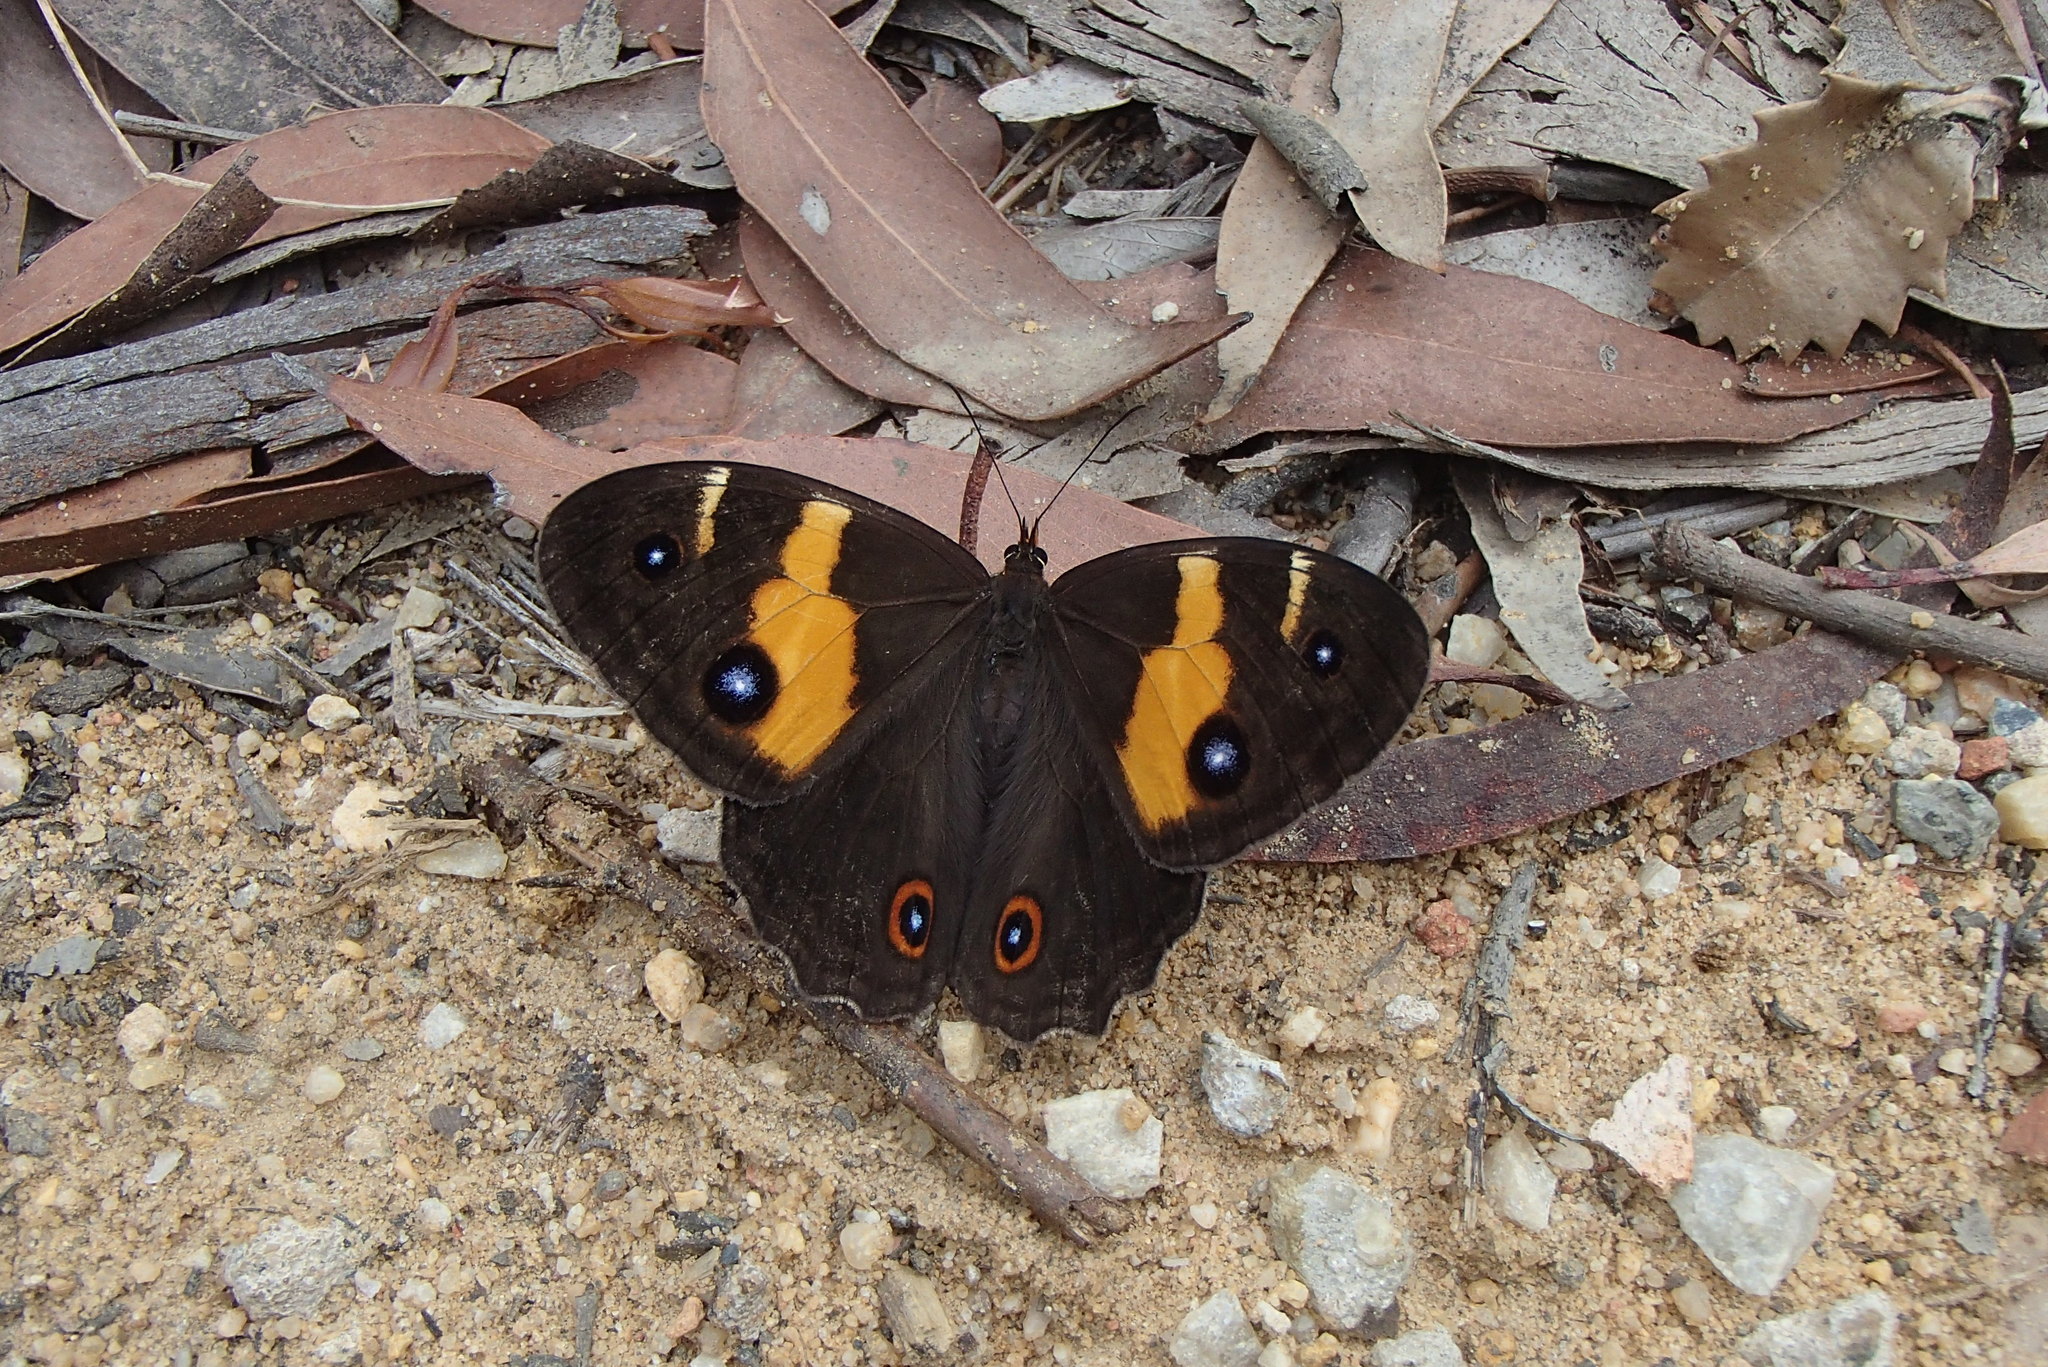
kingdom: Animalia
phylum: Arthropoda
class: Insecta
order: Lepidoptera
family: Nymphalidae
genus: Tisiphone
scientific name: Tisiphone abeona
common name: Swordgrass brown
